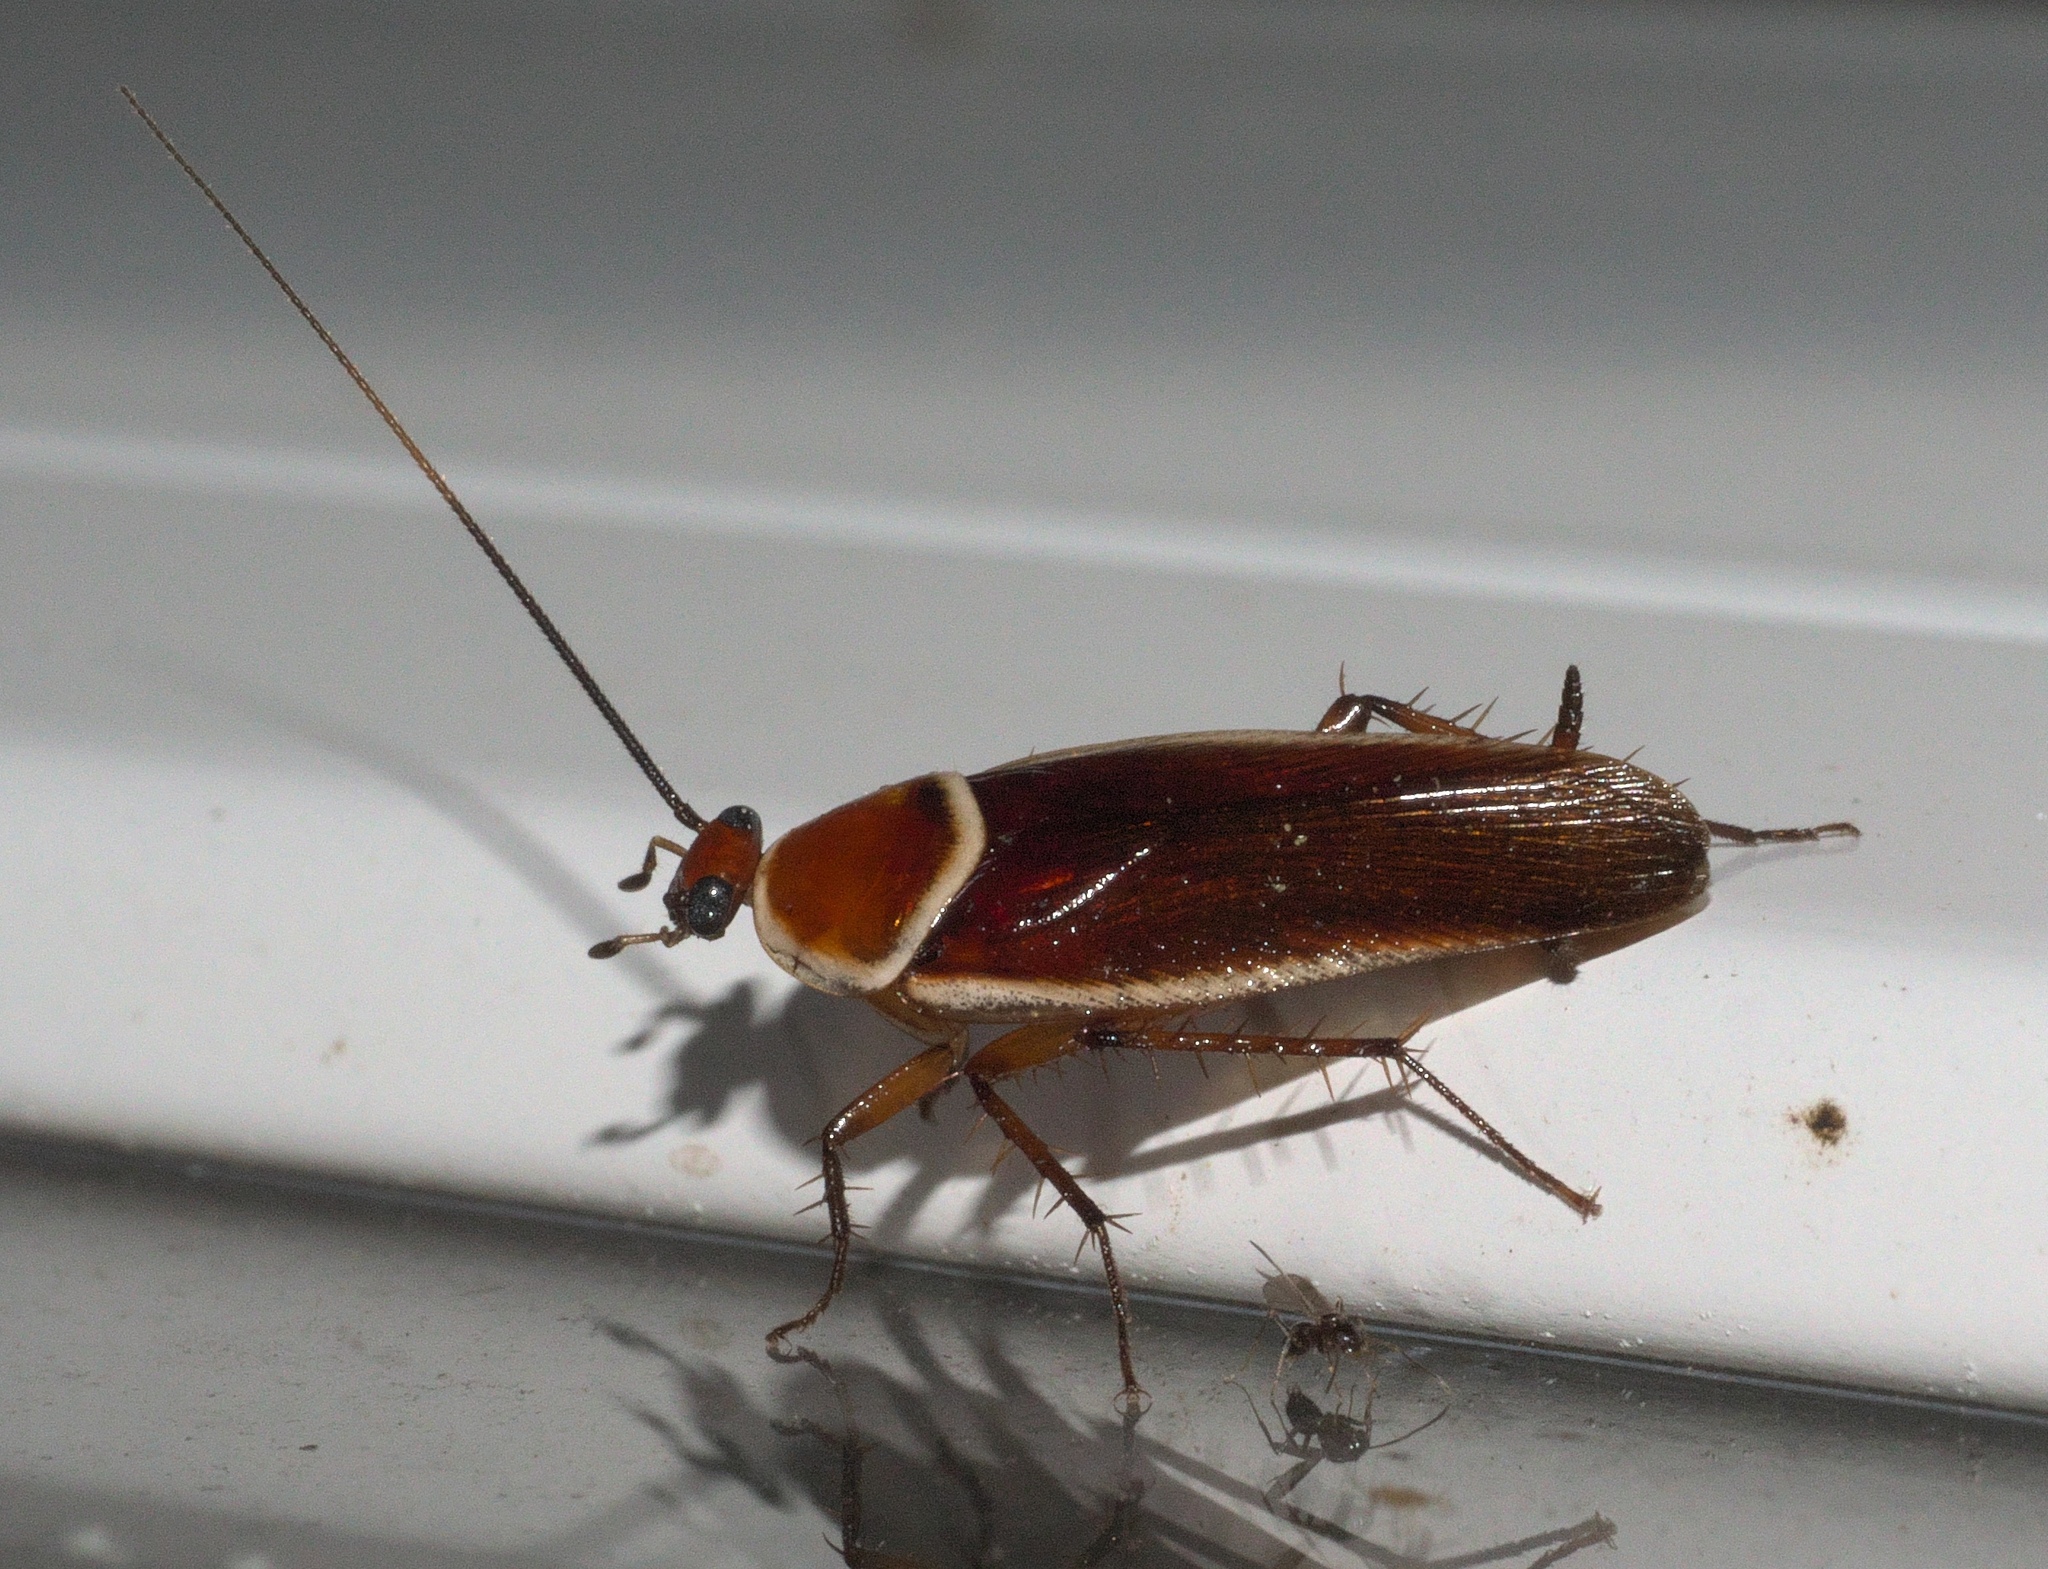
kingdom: Animalia
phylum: Arthropoda
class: Insecta
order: Blattodea
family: Ectobiidae
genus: Pseudomops
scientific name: Pseudomops septentrionalis
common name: Pale-bordered field cockroach
